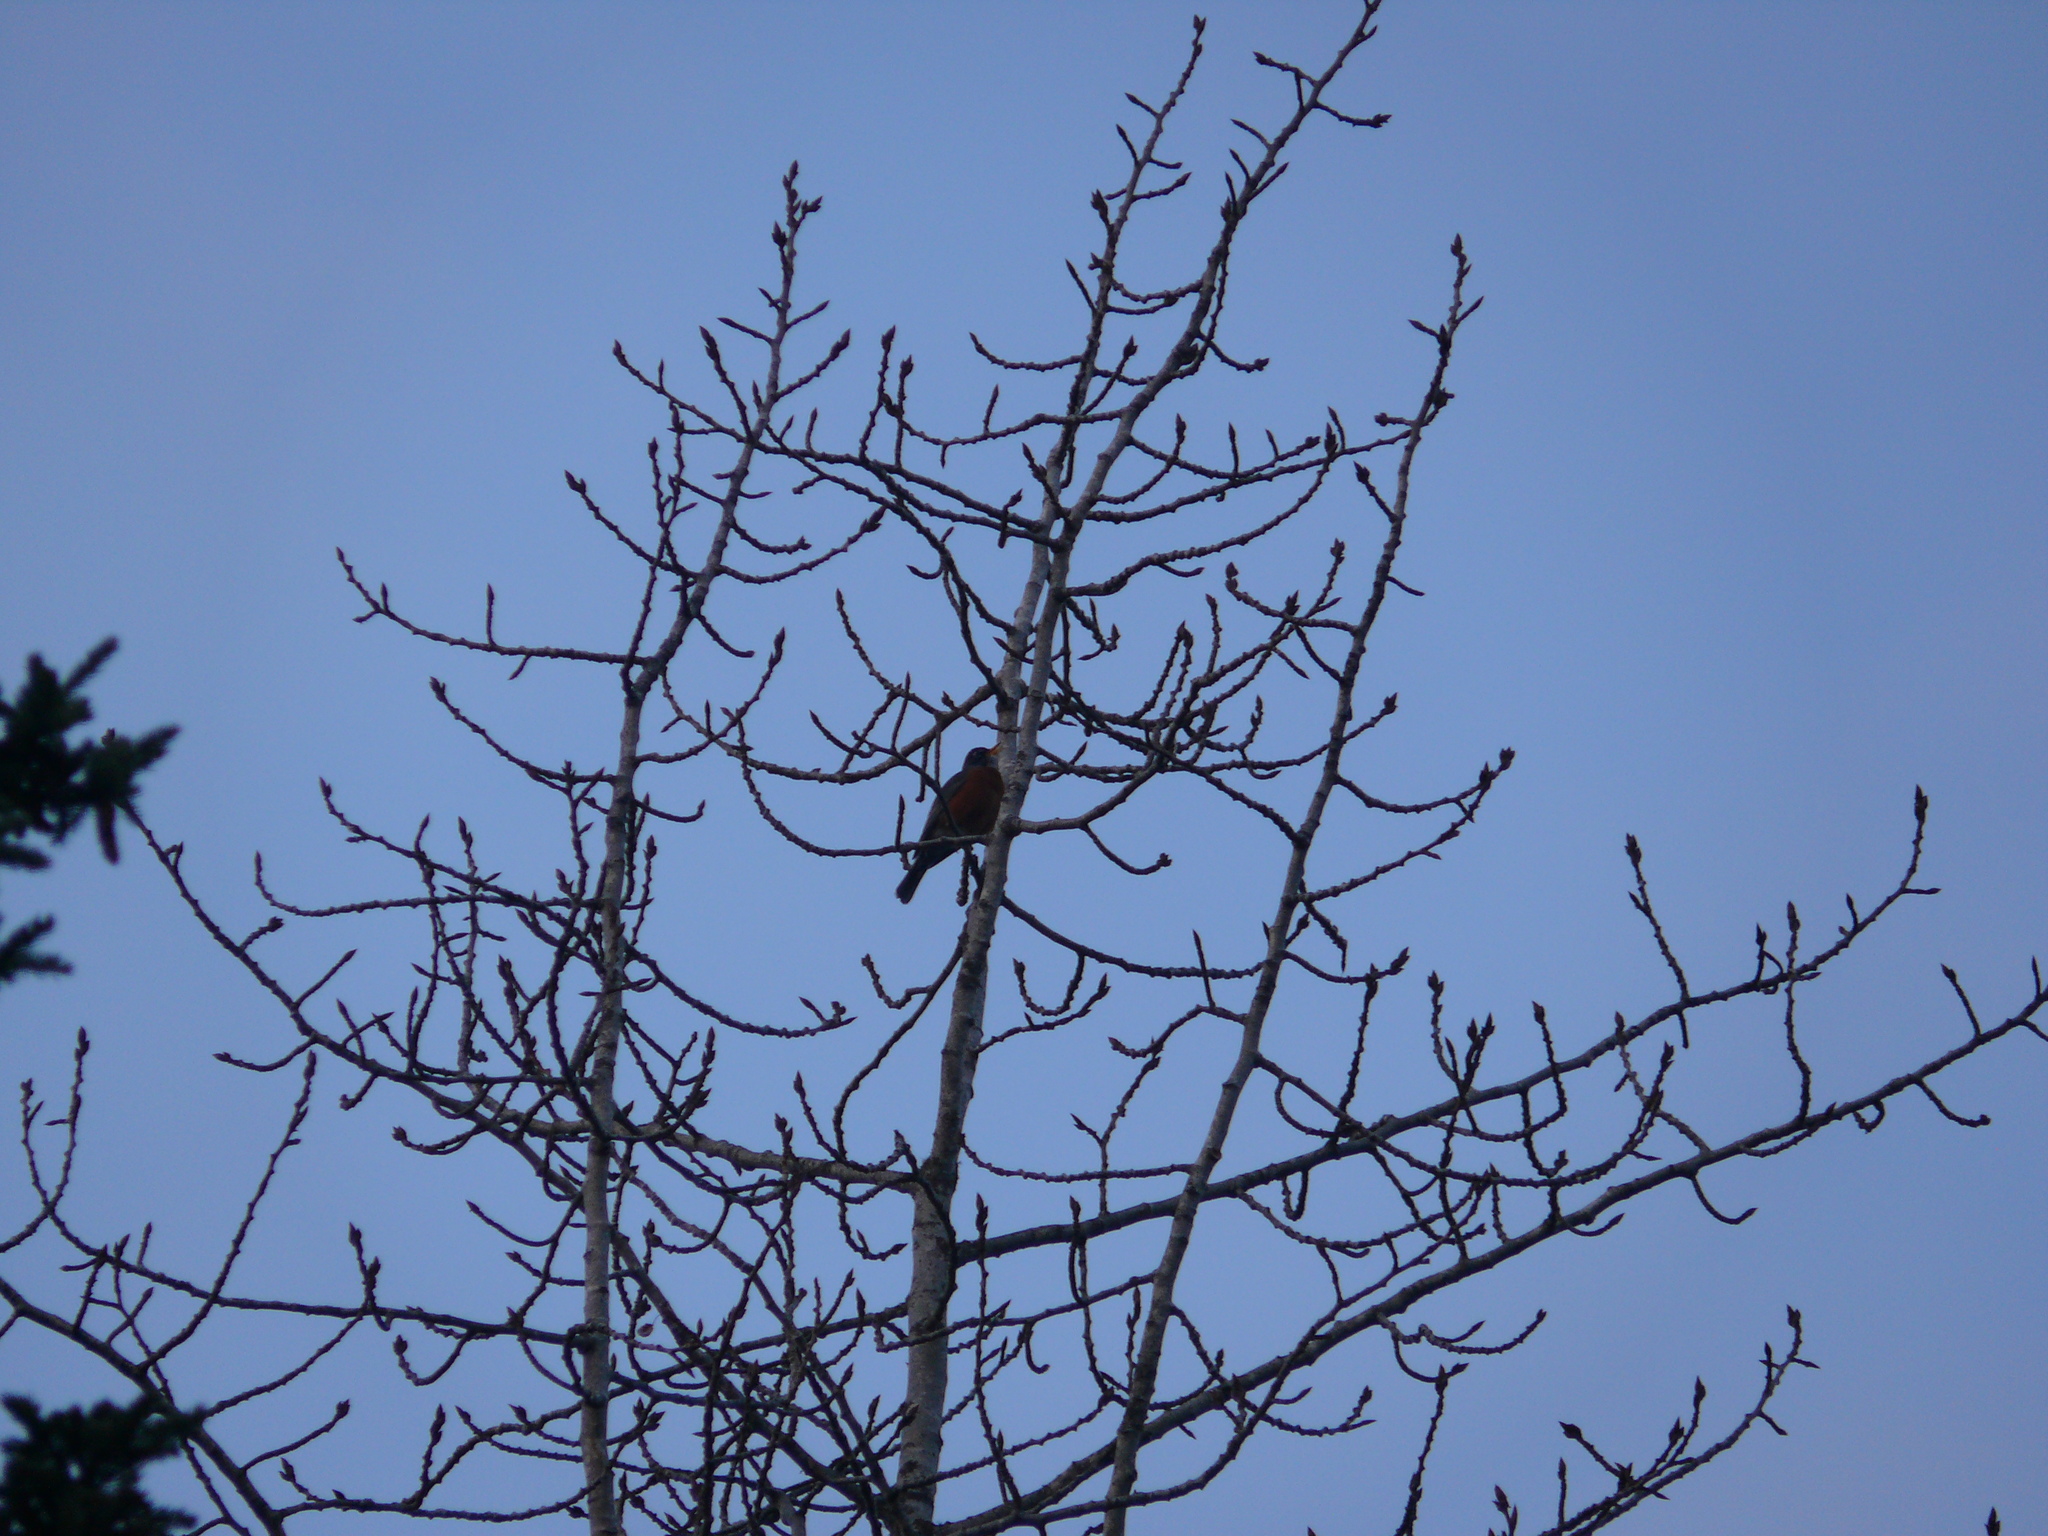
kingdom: Animalia
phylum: Chordata
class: Aves
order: Passeriformes
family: Turdidae
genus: Turdus
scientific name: Turdus migratorius
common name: American robin
